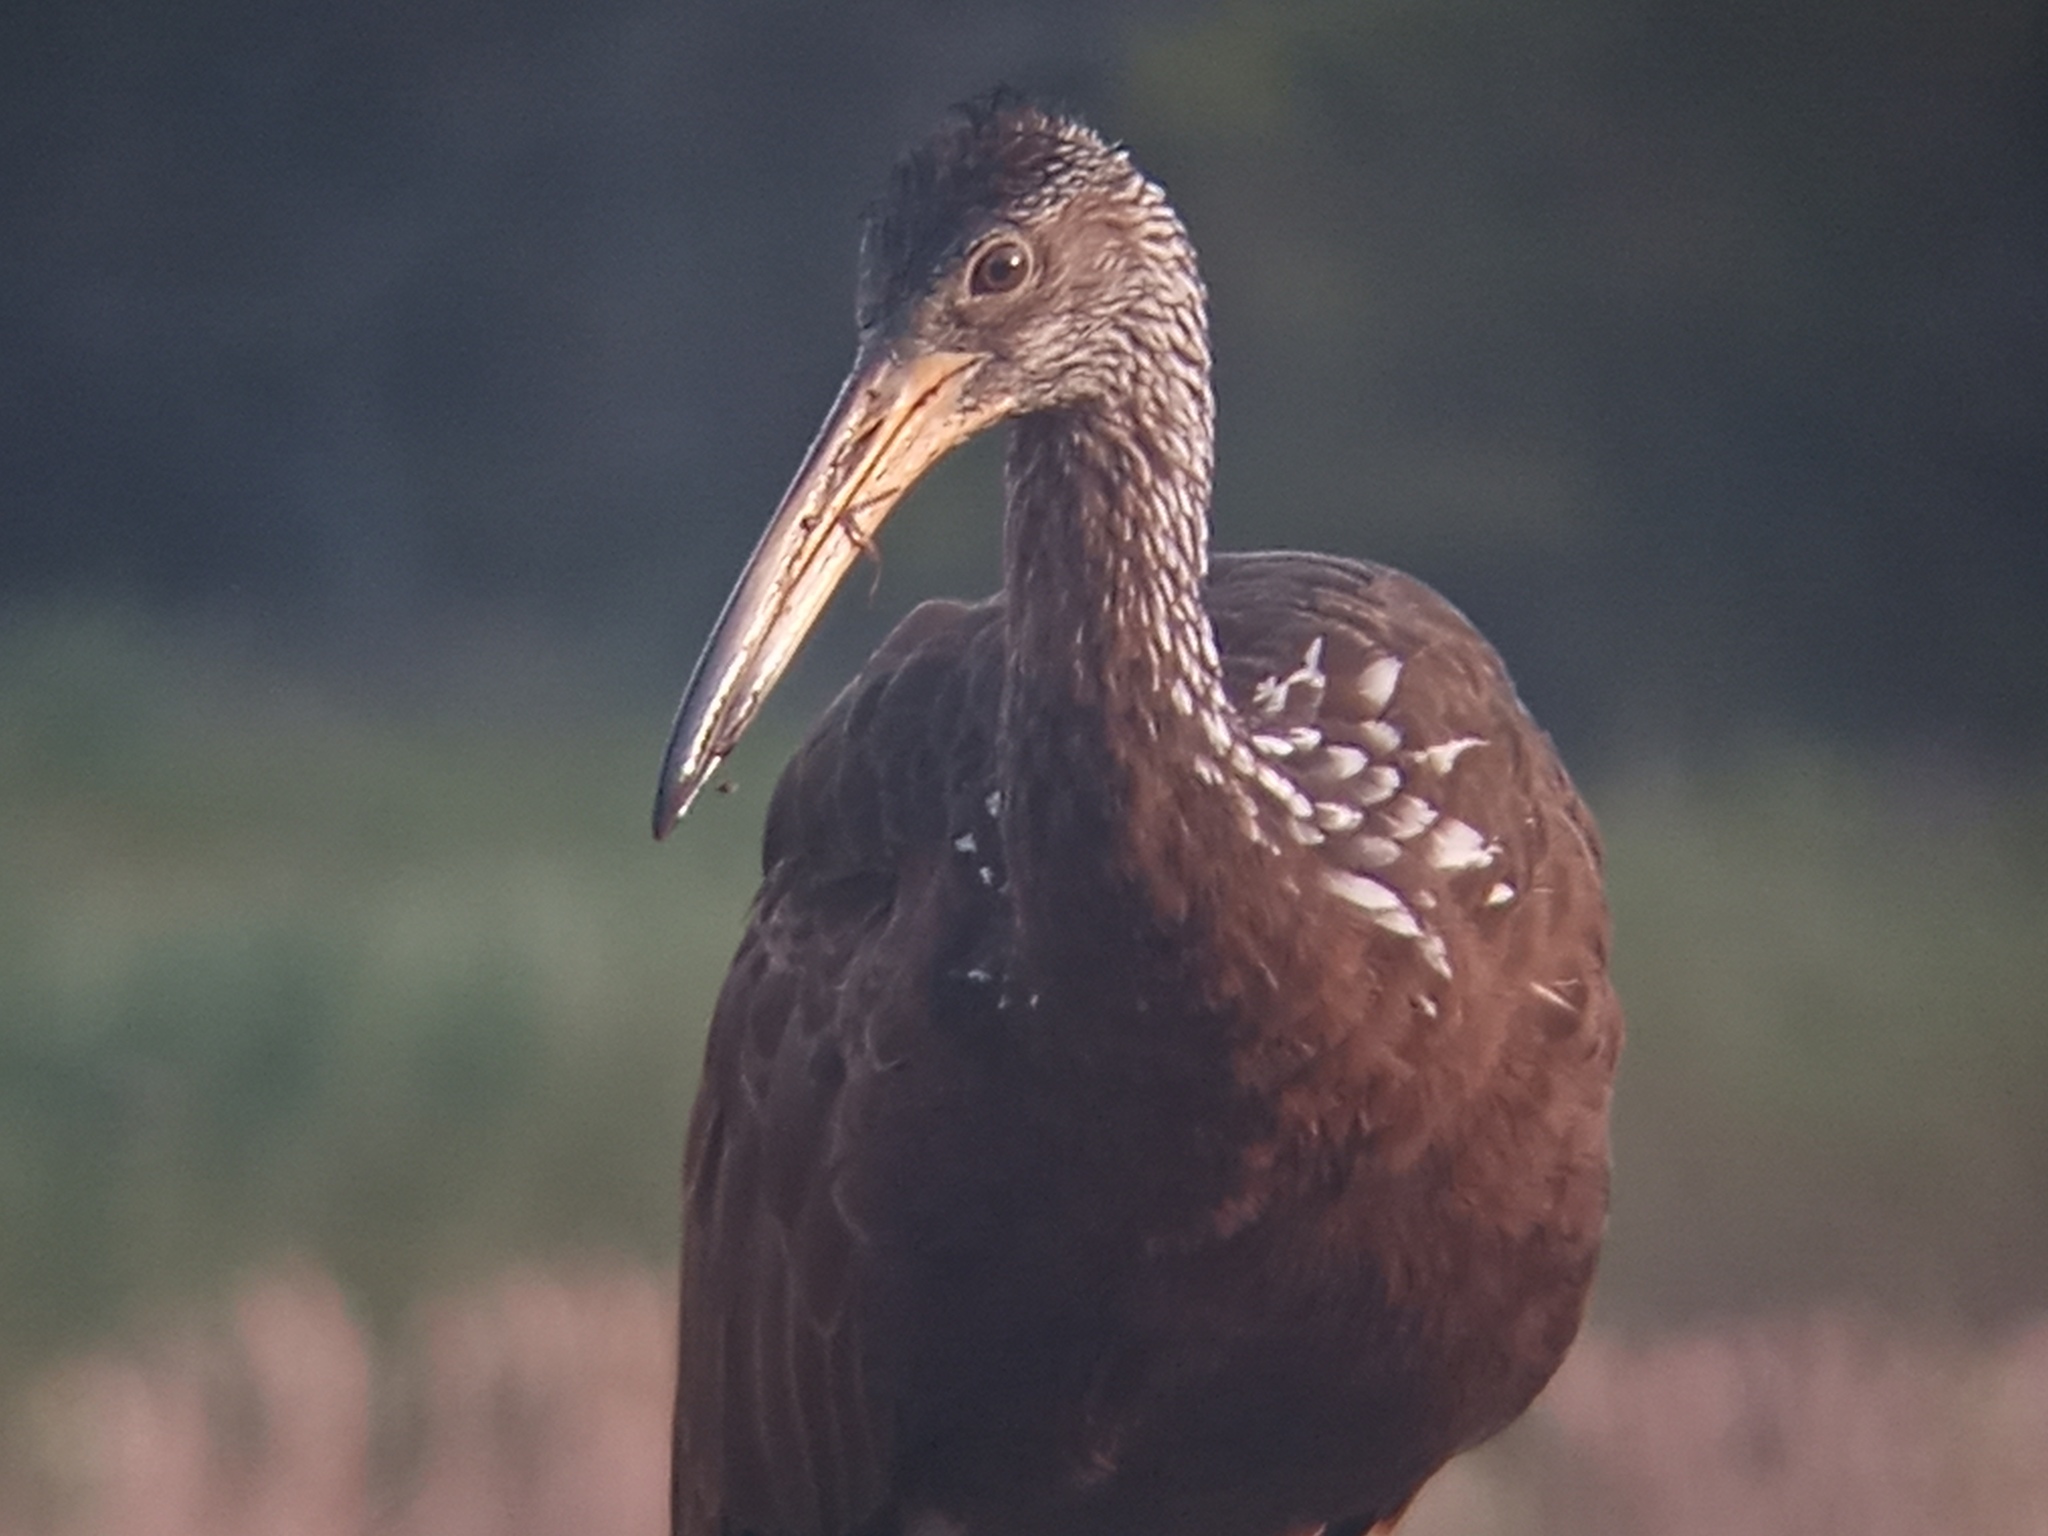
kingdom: Animalia
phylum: Chordata
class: Aves
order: Gruiformes
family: Aramidae
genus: Aramus
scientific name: Aramus guarauna
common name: Limpkin
